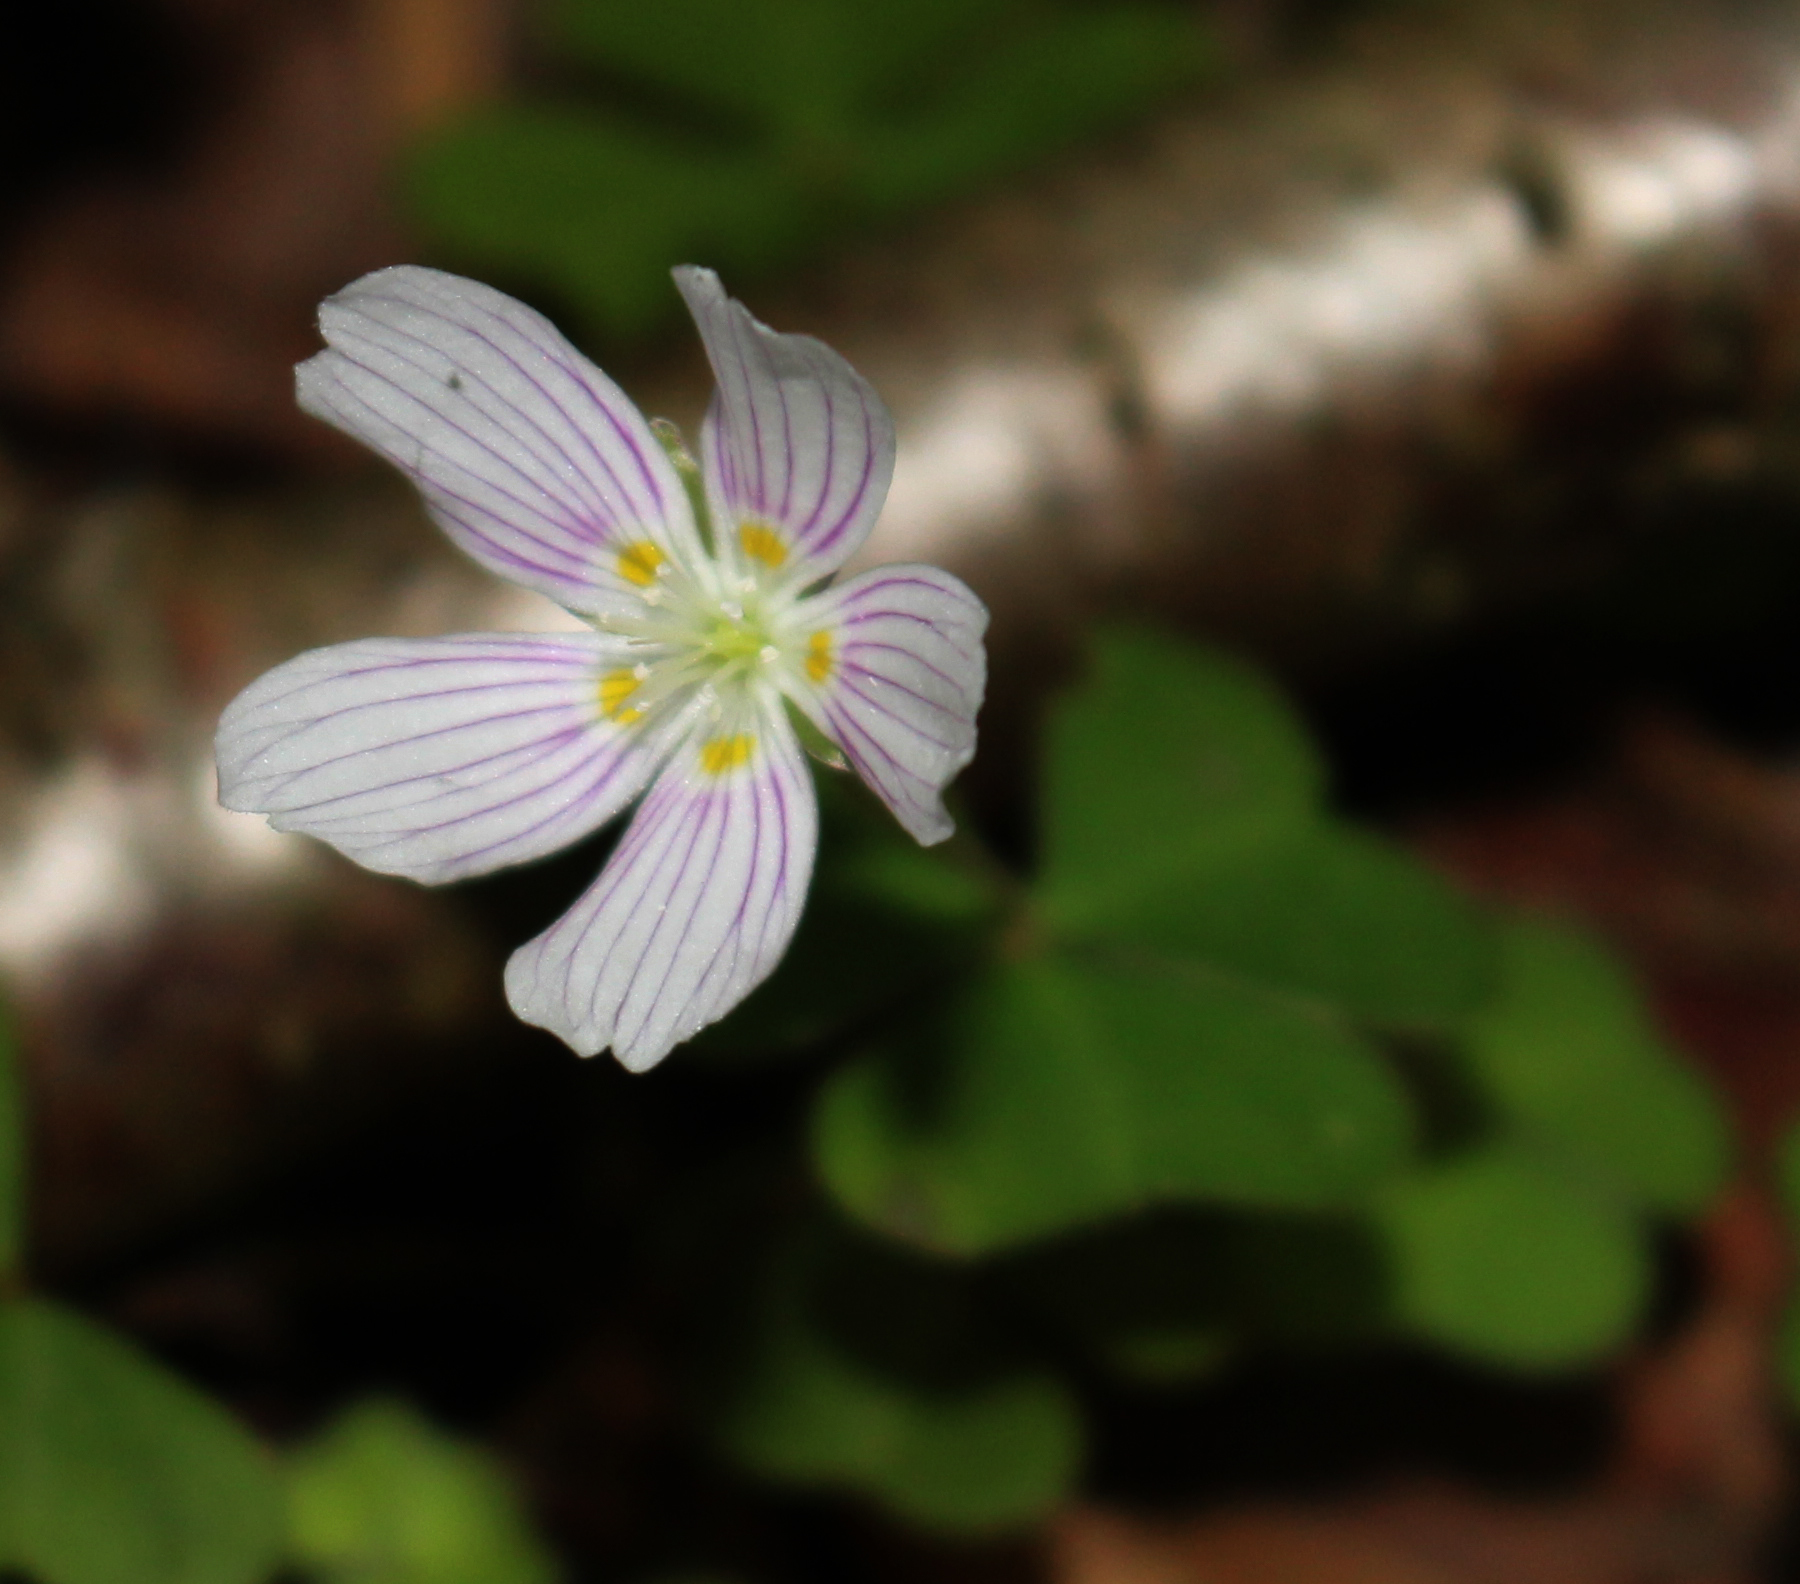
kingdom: Plantae
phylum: Tracheophyta
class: Magnoliopsida
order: Oxalidales
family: Oxalidaceae
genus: Oxalis
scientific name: Oxalis montana
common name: American wood-sorrel
